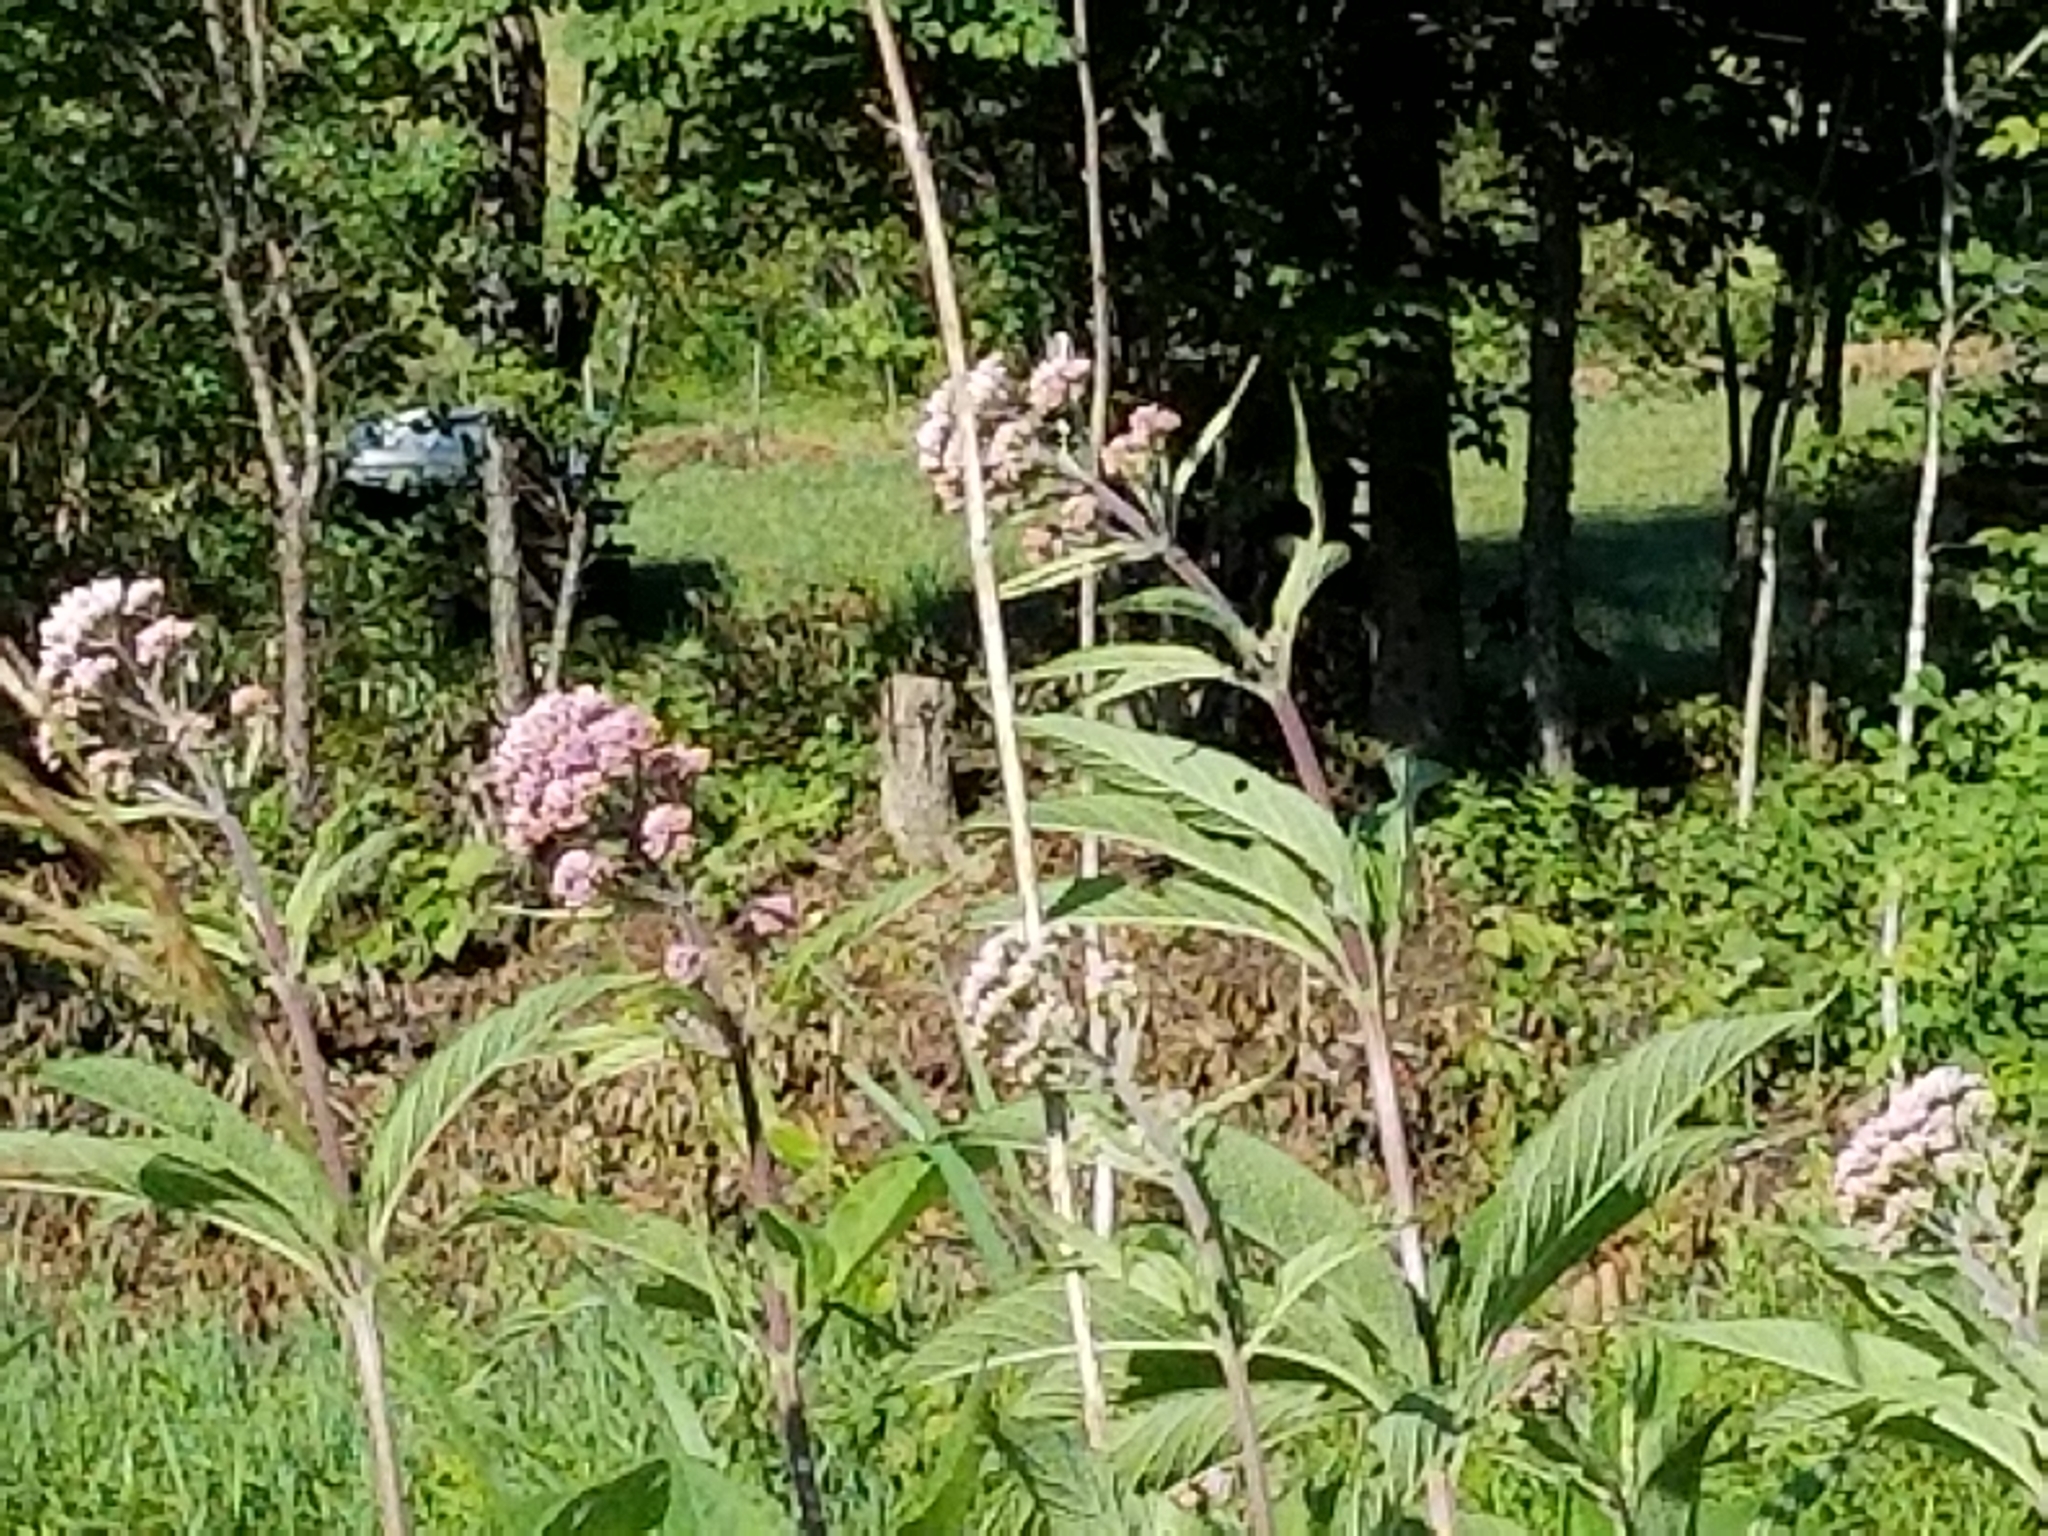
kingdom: Plantae
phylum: Tracheophyta
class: Magnoliopsida
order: Asterales
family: Asteraceae
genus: Eutrochium
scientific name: Eutrochium maculatum
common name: Spotted joe pye weed
